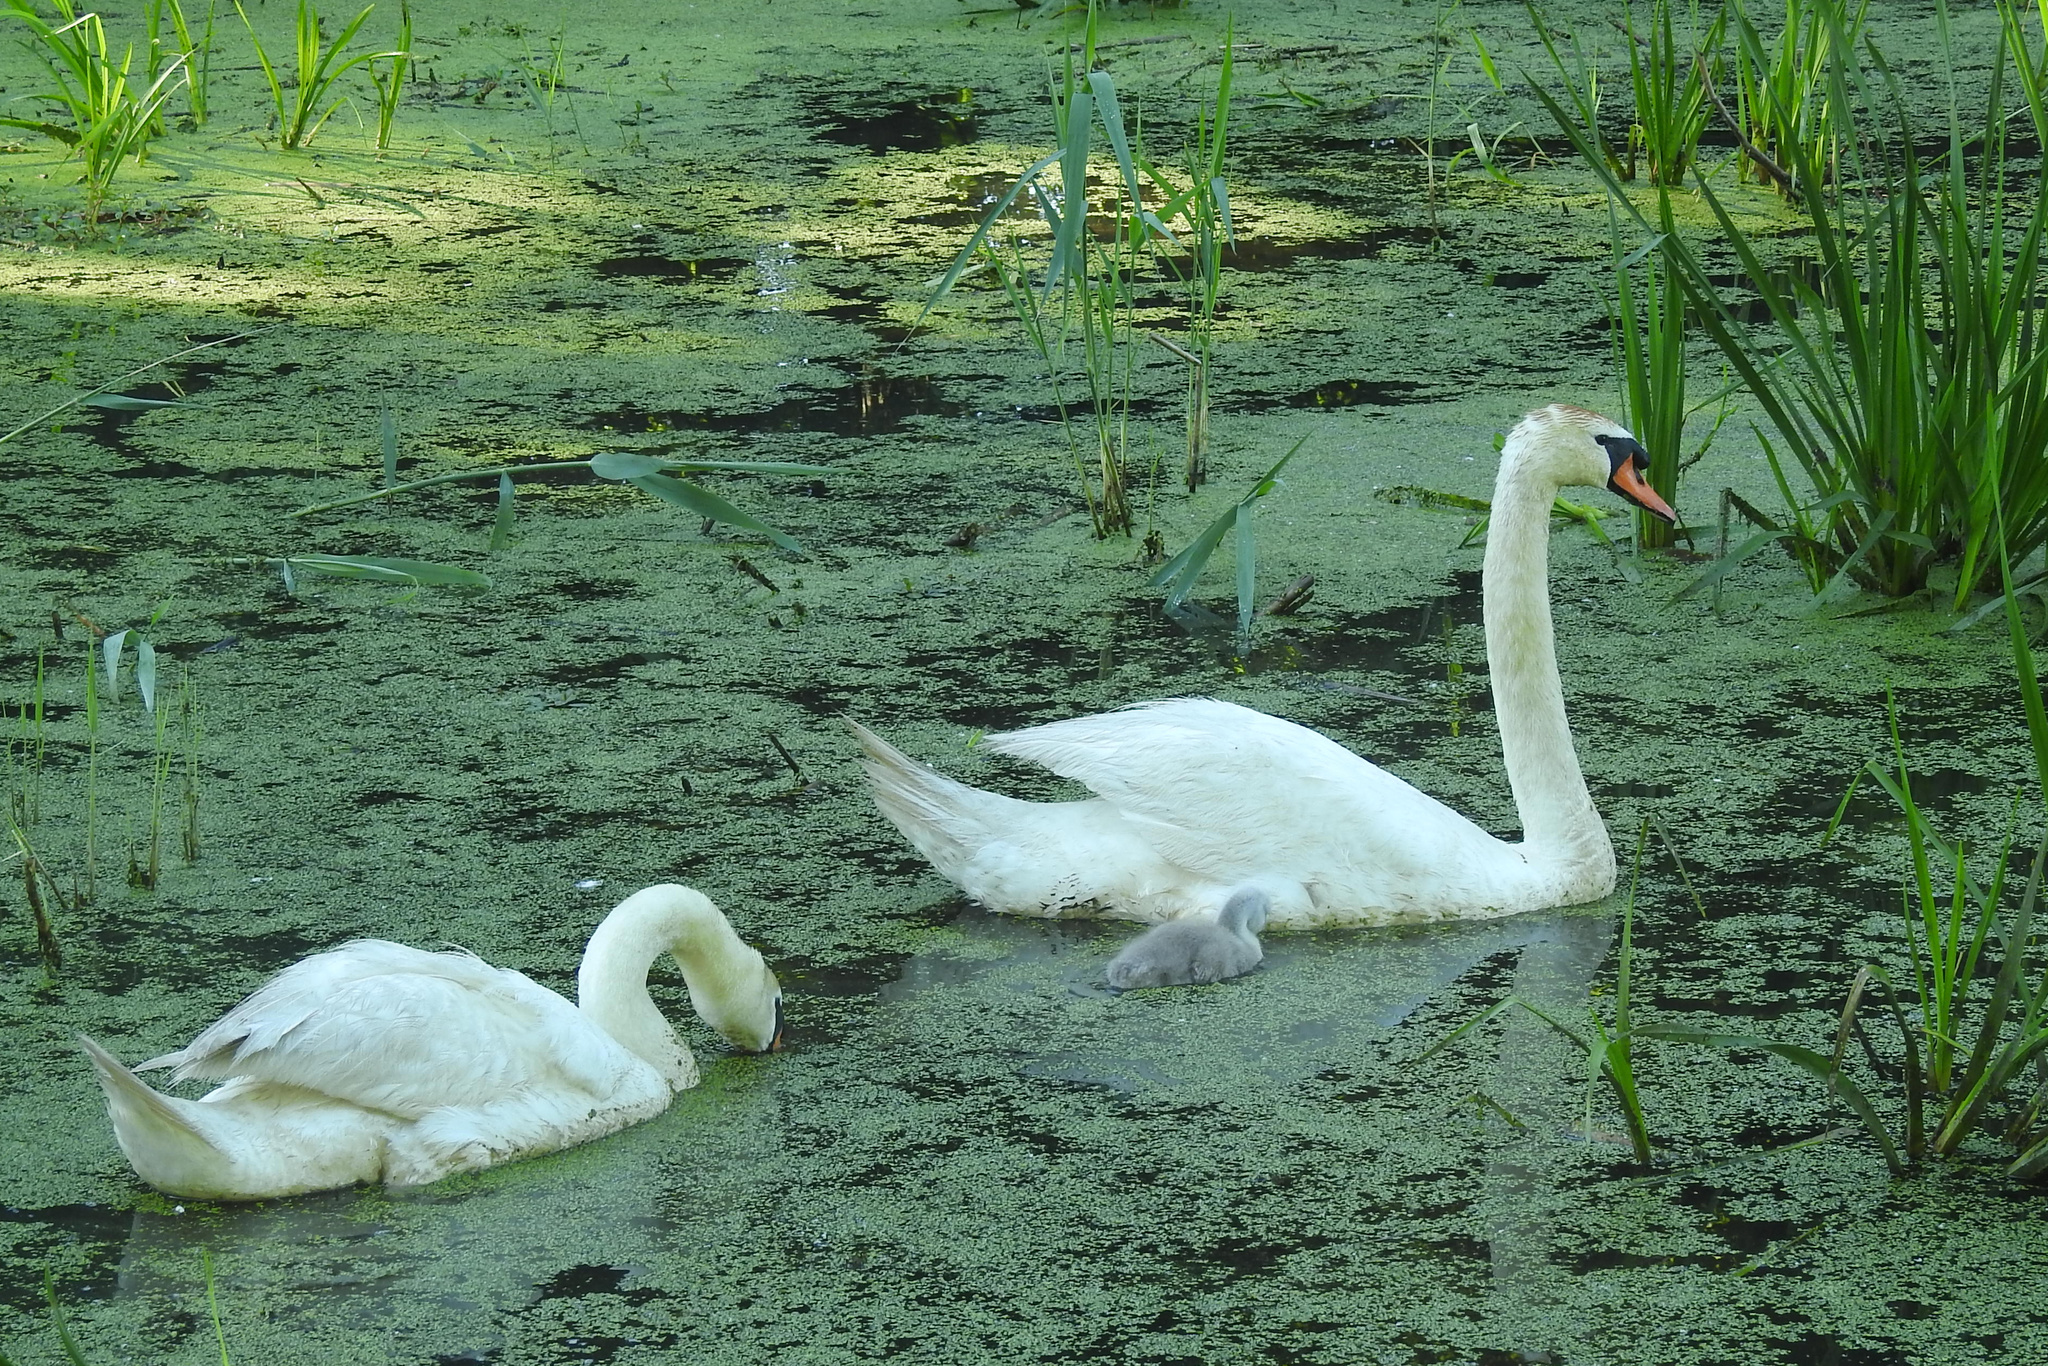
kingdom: Animalia
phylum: Chordata
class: Aves
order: Anseriformes
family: Anatidae
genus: Cygnus
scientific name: Cygnus olor
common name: Mute swan
